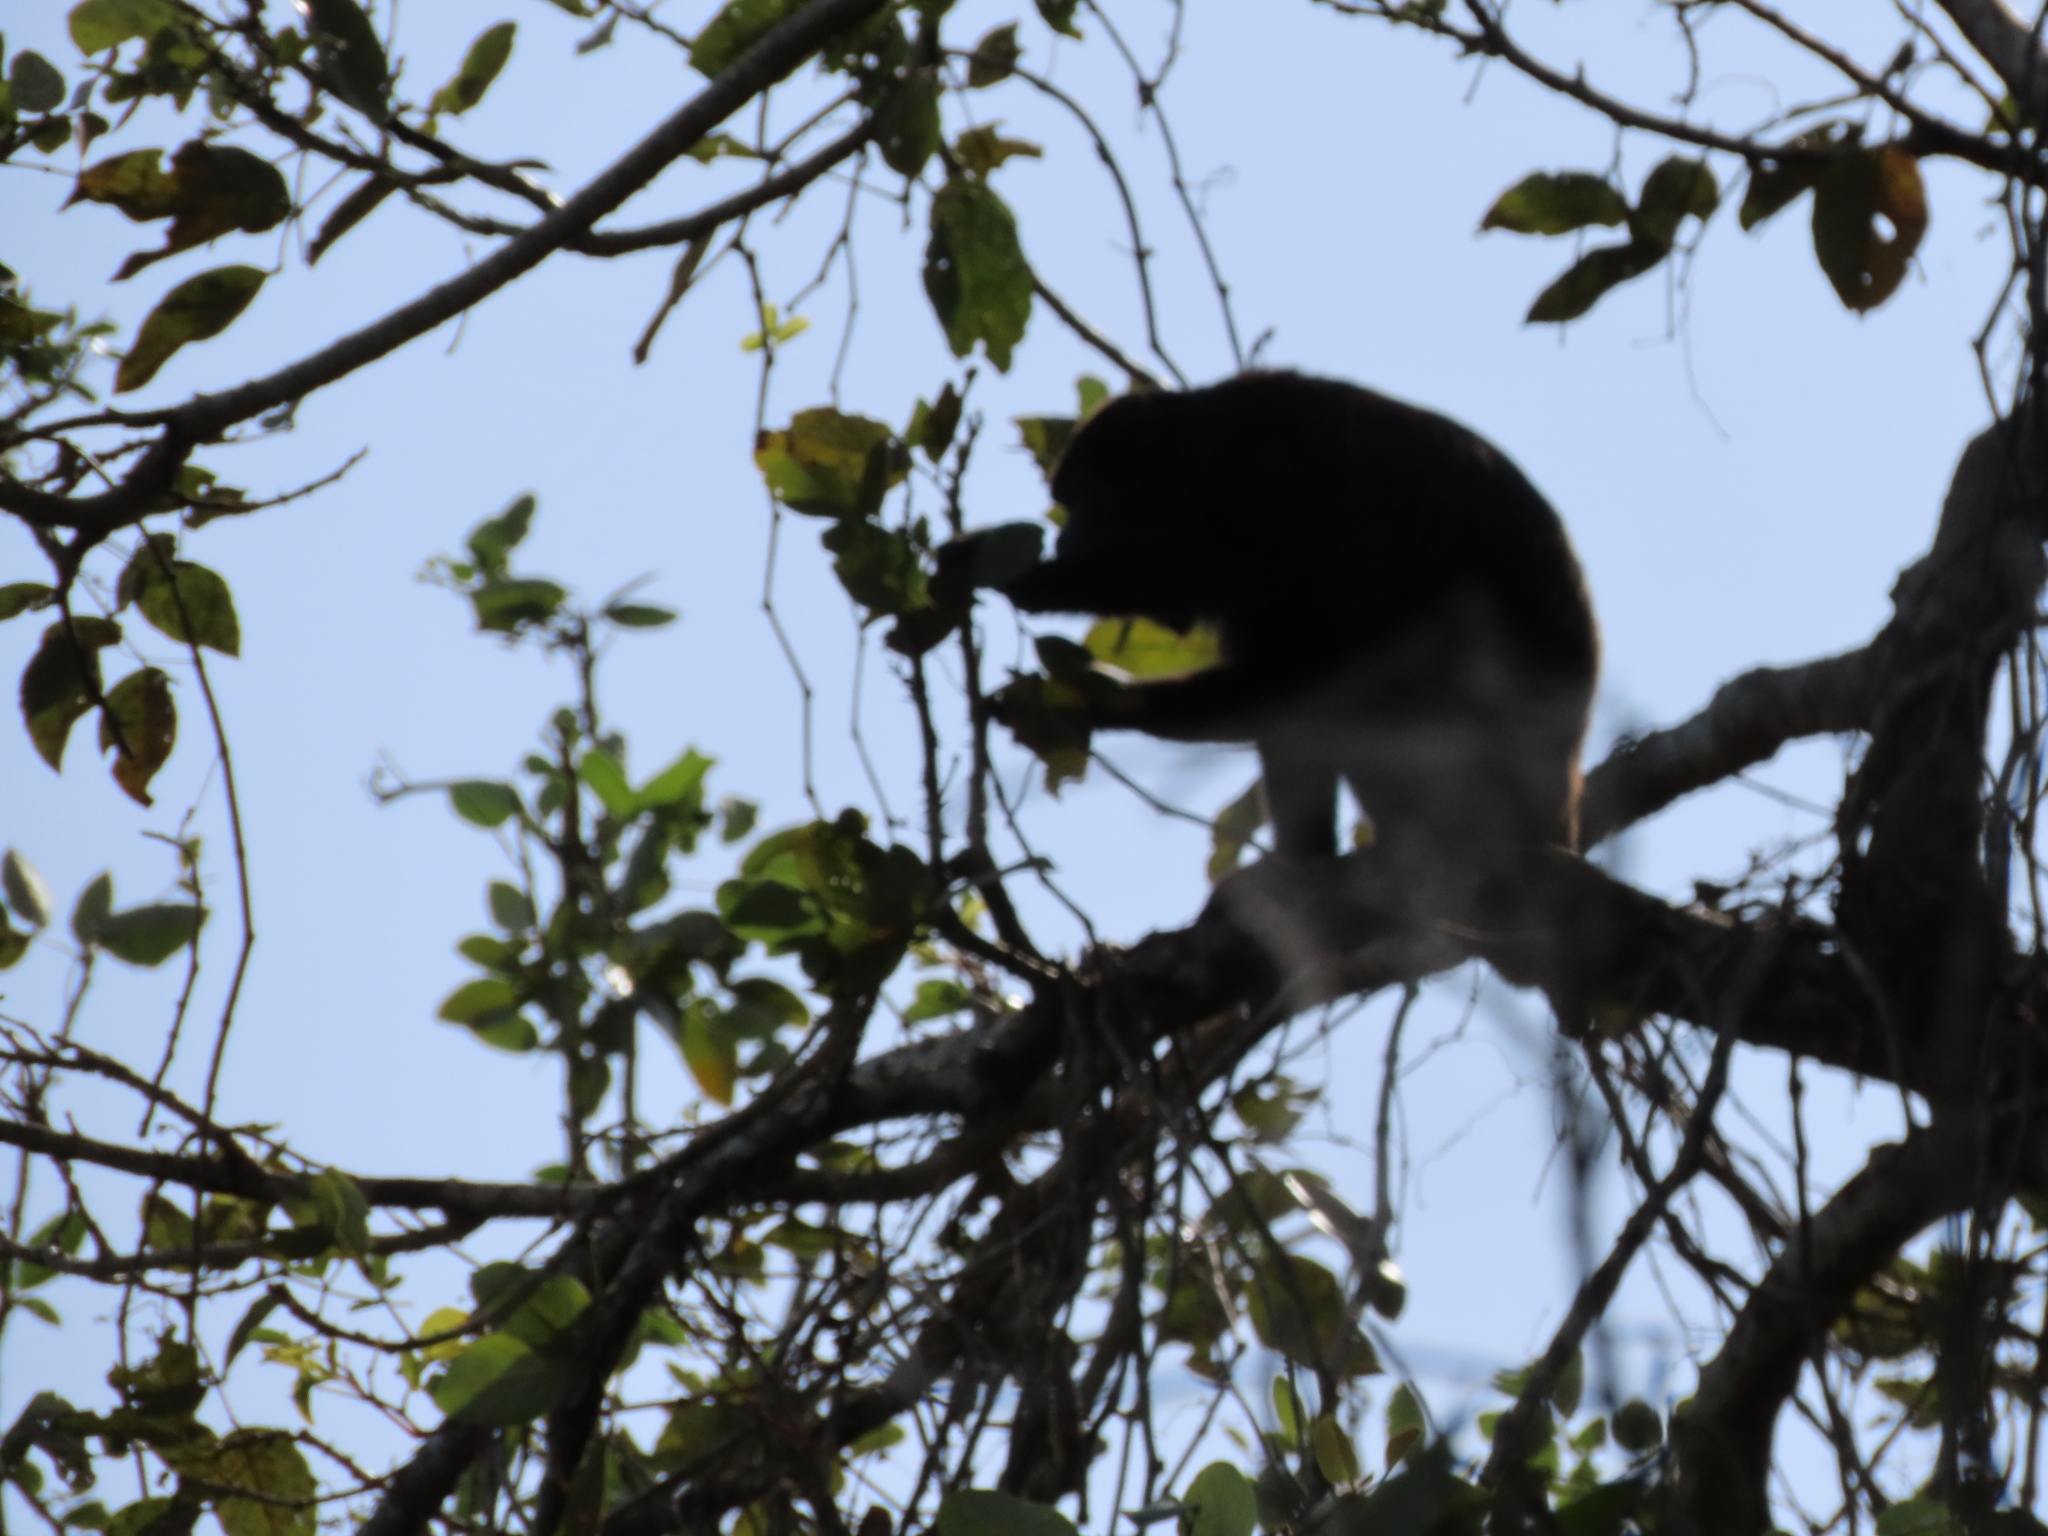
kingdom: Animalia
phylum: Chordata
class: Mammalia
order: Primates
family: Atelidae
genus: Alouatta
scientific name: Alouatta palliata
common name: Mantled howler
